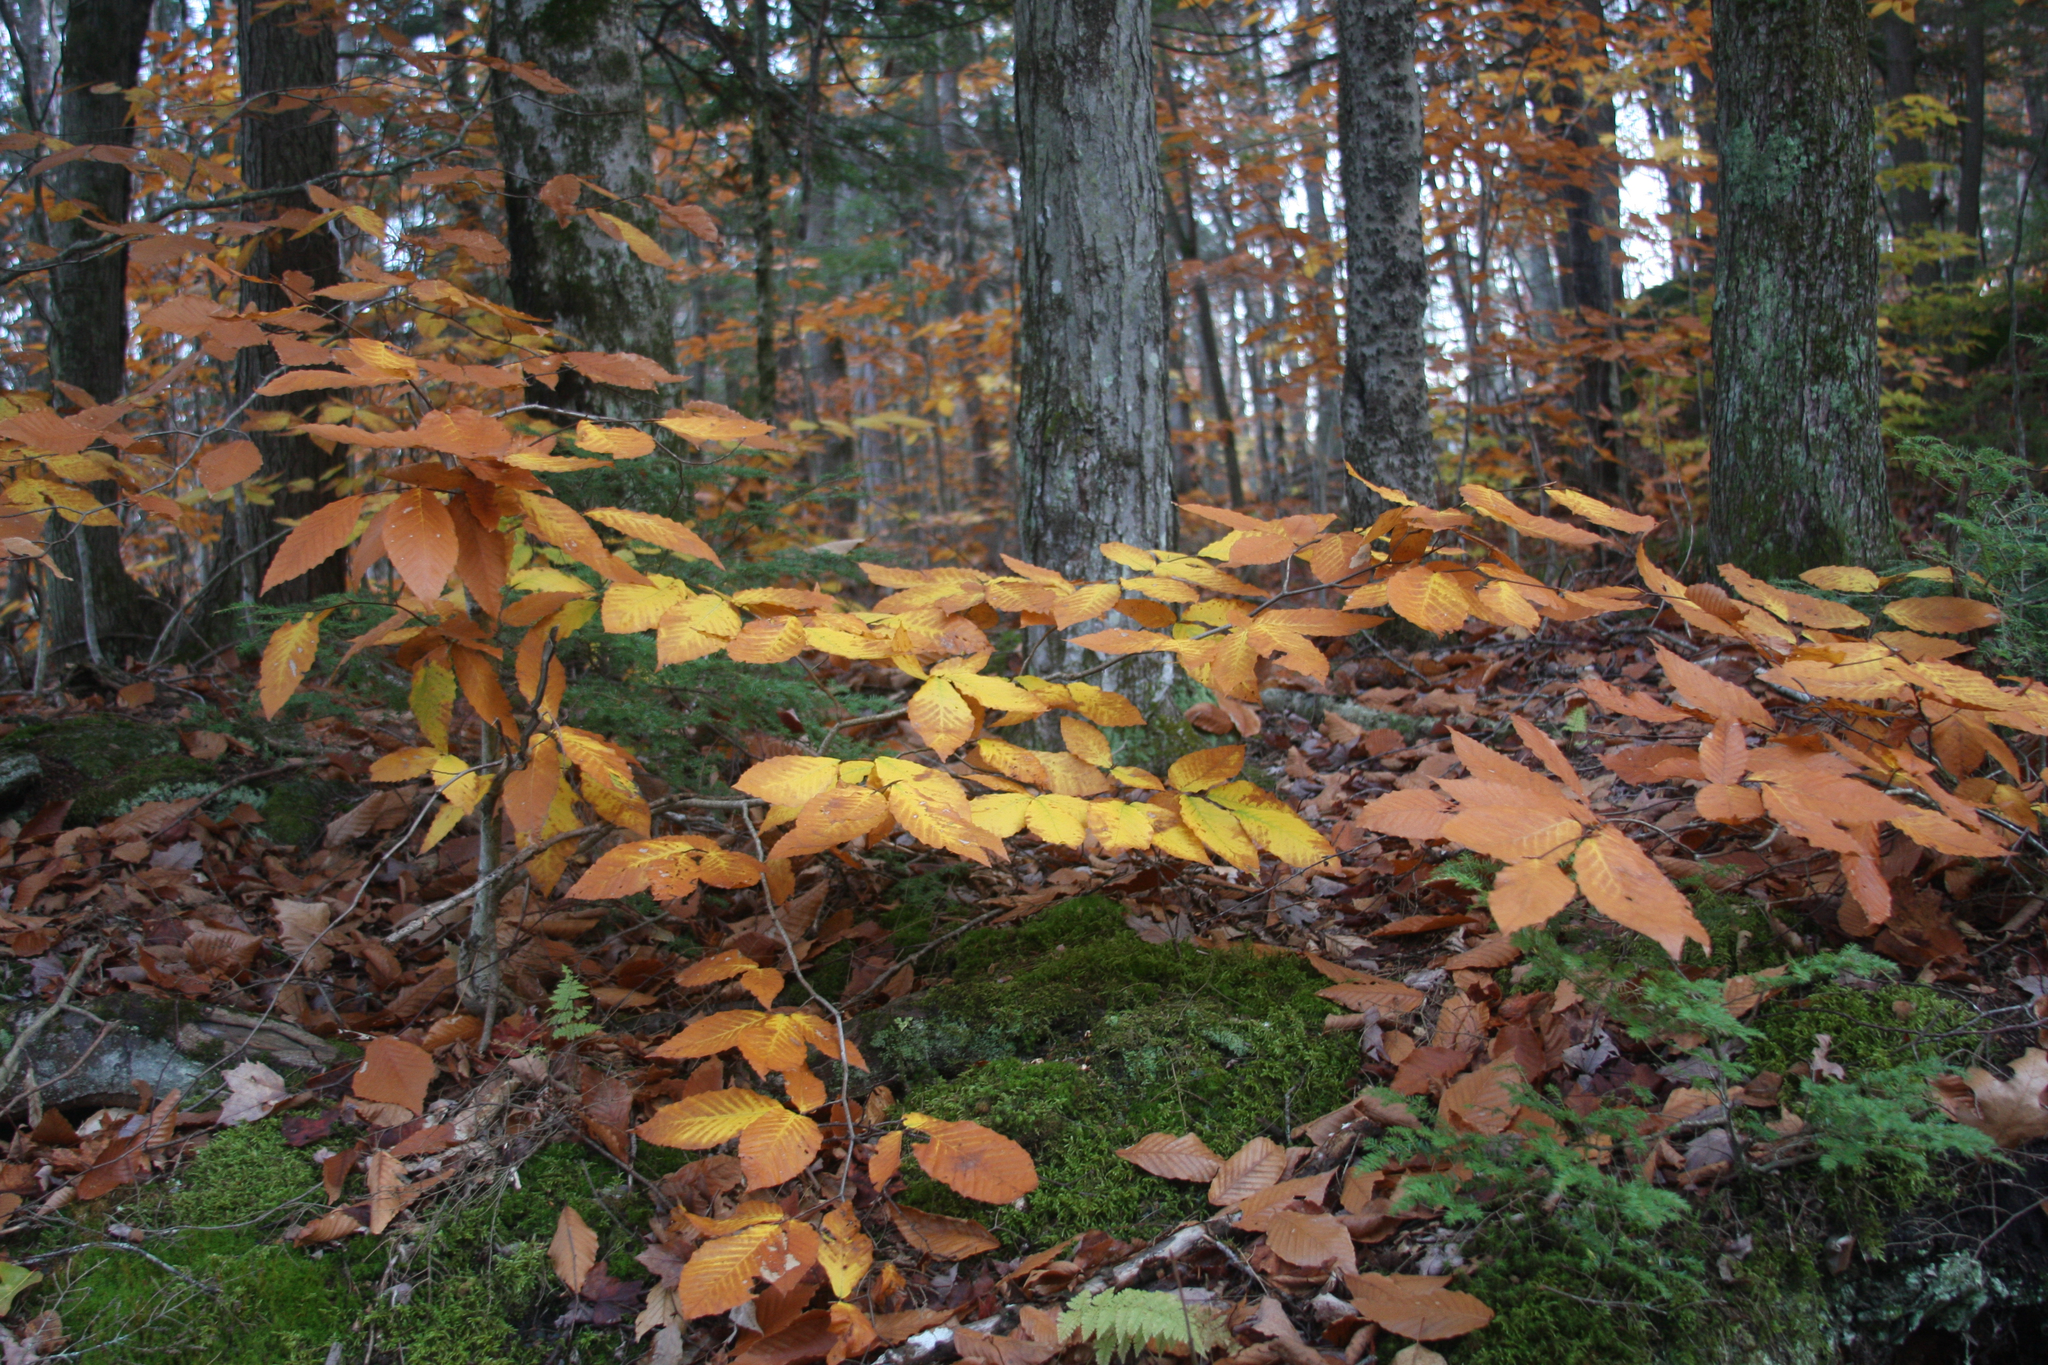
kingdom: Plantae
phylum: Tracheophyta
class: Magnoliopsida
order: Fagales
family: Fagaceae
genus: Fagus
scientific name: Fagus grandifolia
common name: American beech
